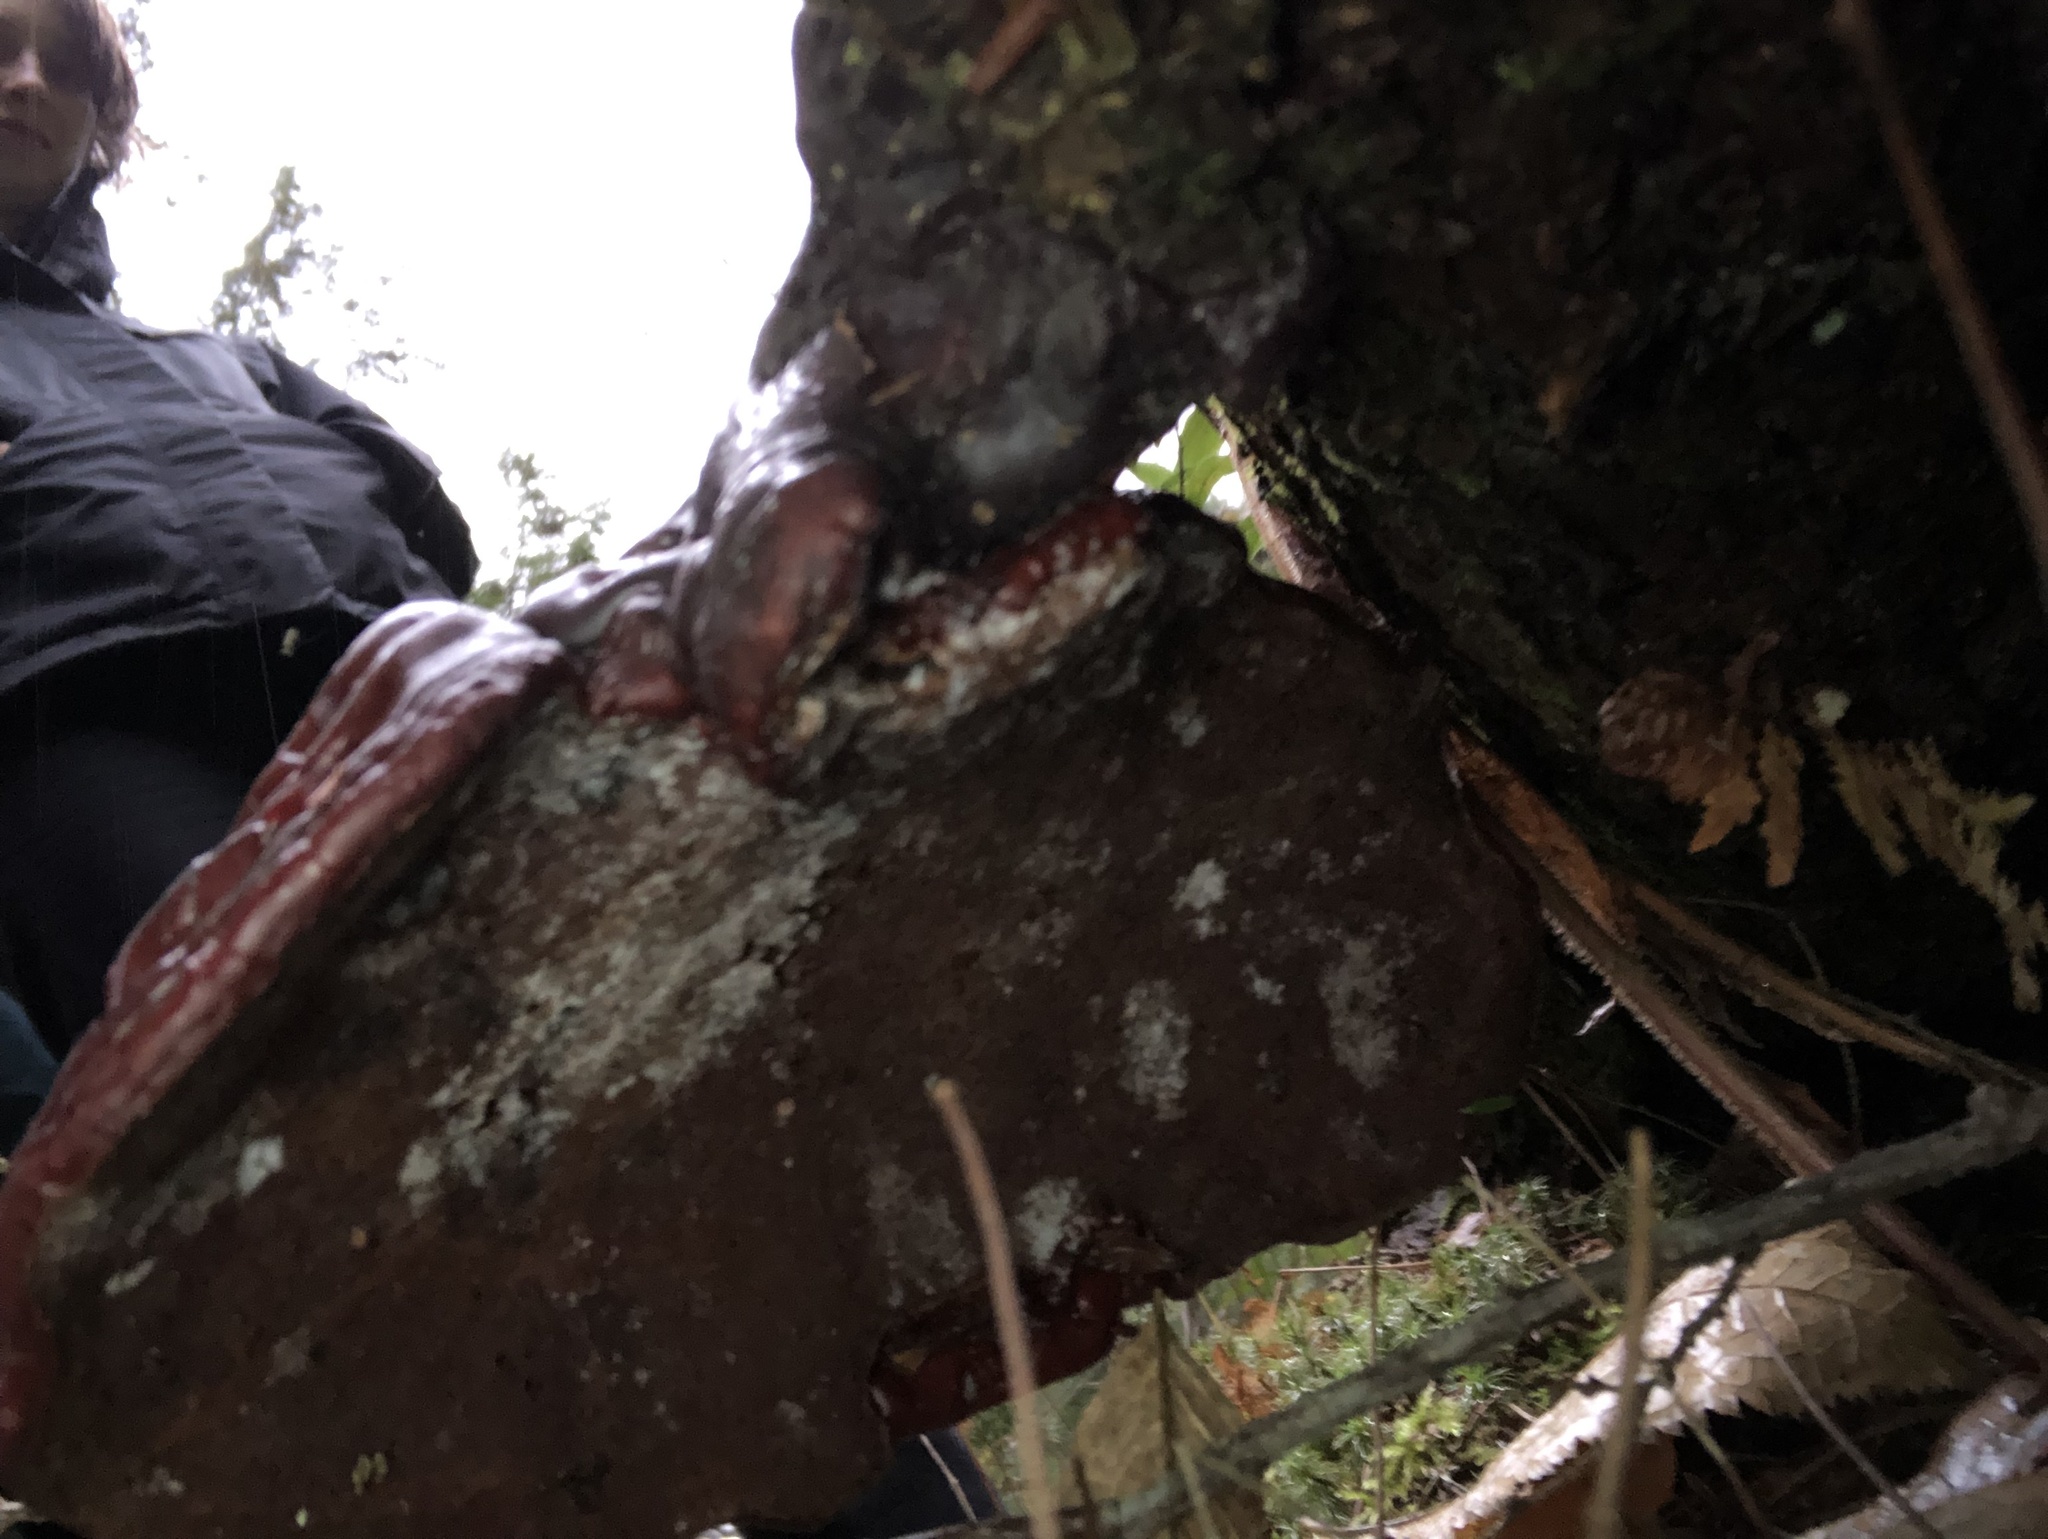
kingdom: Fungi
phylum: Basidiomycota
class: Agaricomycetes
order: Polyporales
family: Polyporaceae
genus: Ganoderma
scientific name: Ganoderma tsugae
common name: Hemlock varnish shelf
